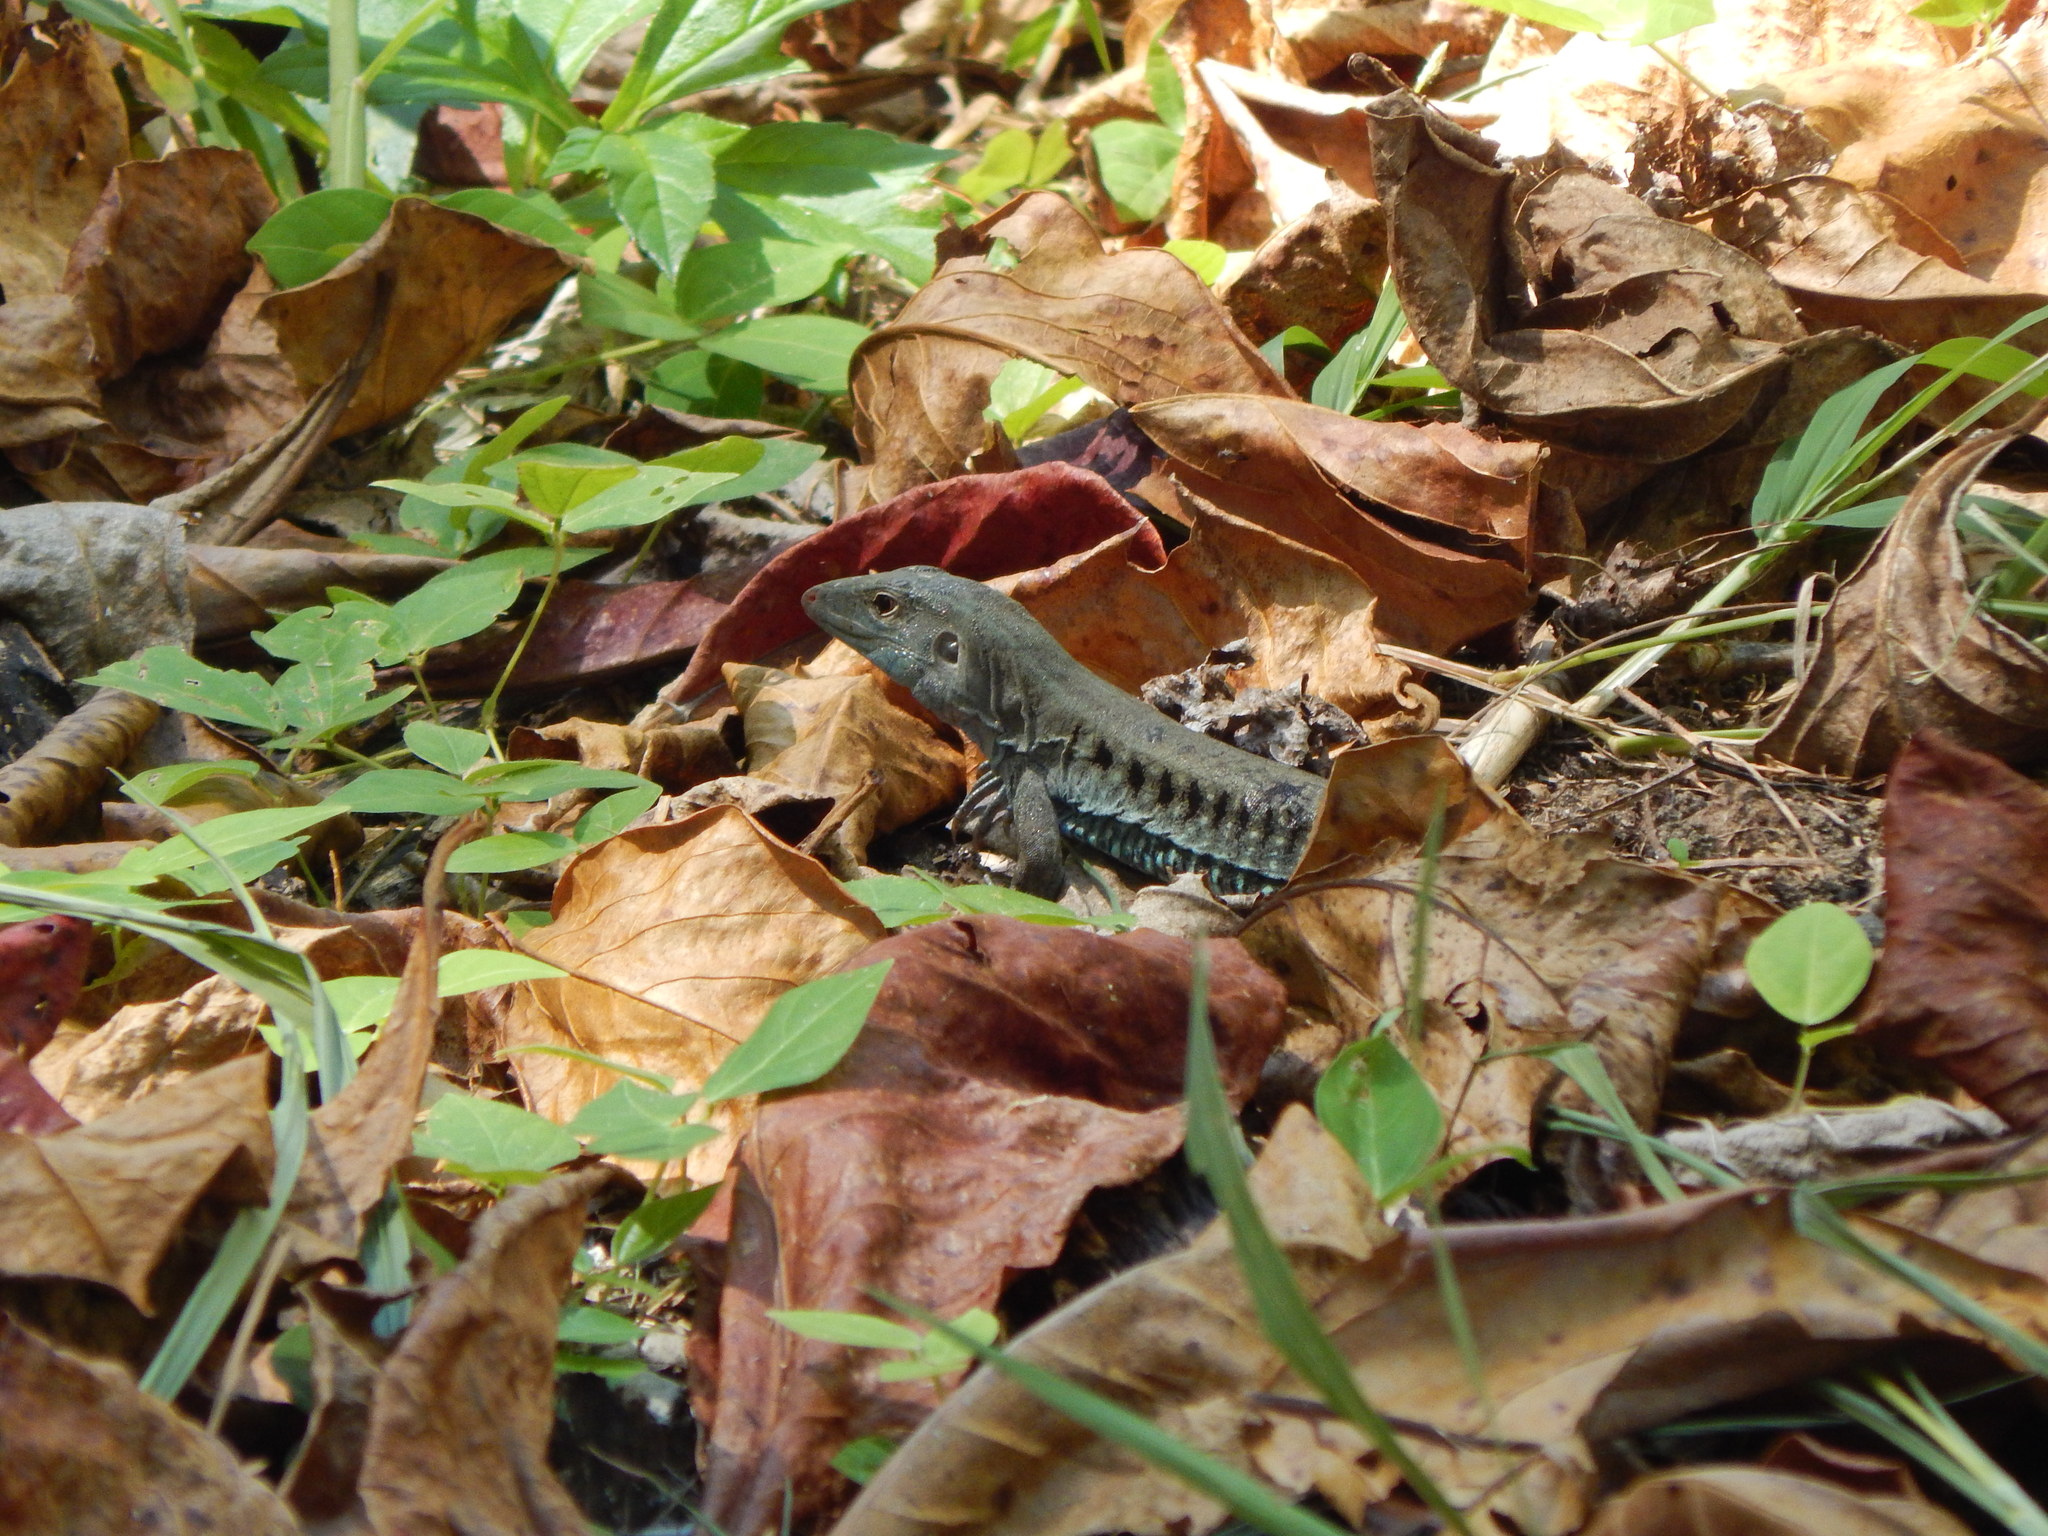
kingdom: Animalia
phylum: Chordata
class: Squamata
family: Teiidae
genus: Pholidoscelis
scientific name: Pholidoscelis exsul
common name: Common puerto rican ameiva
